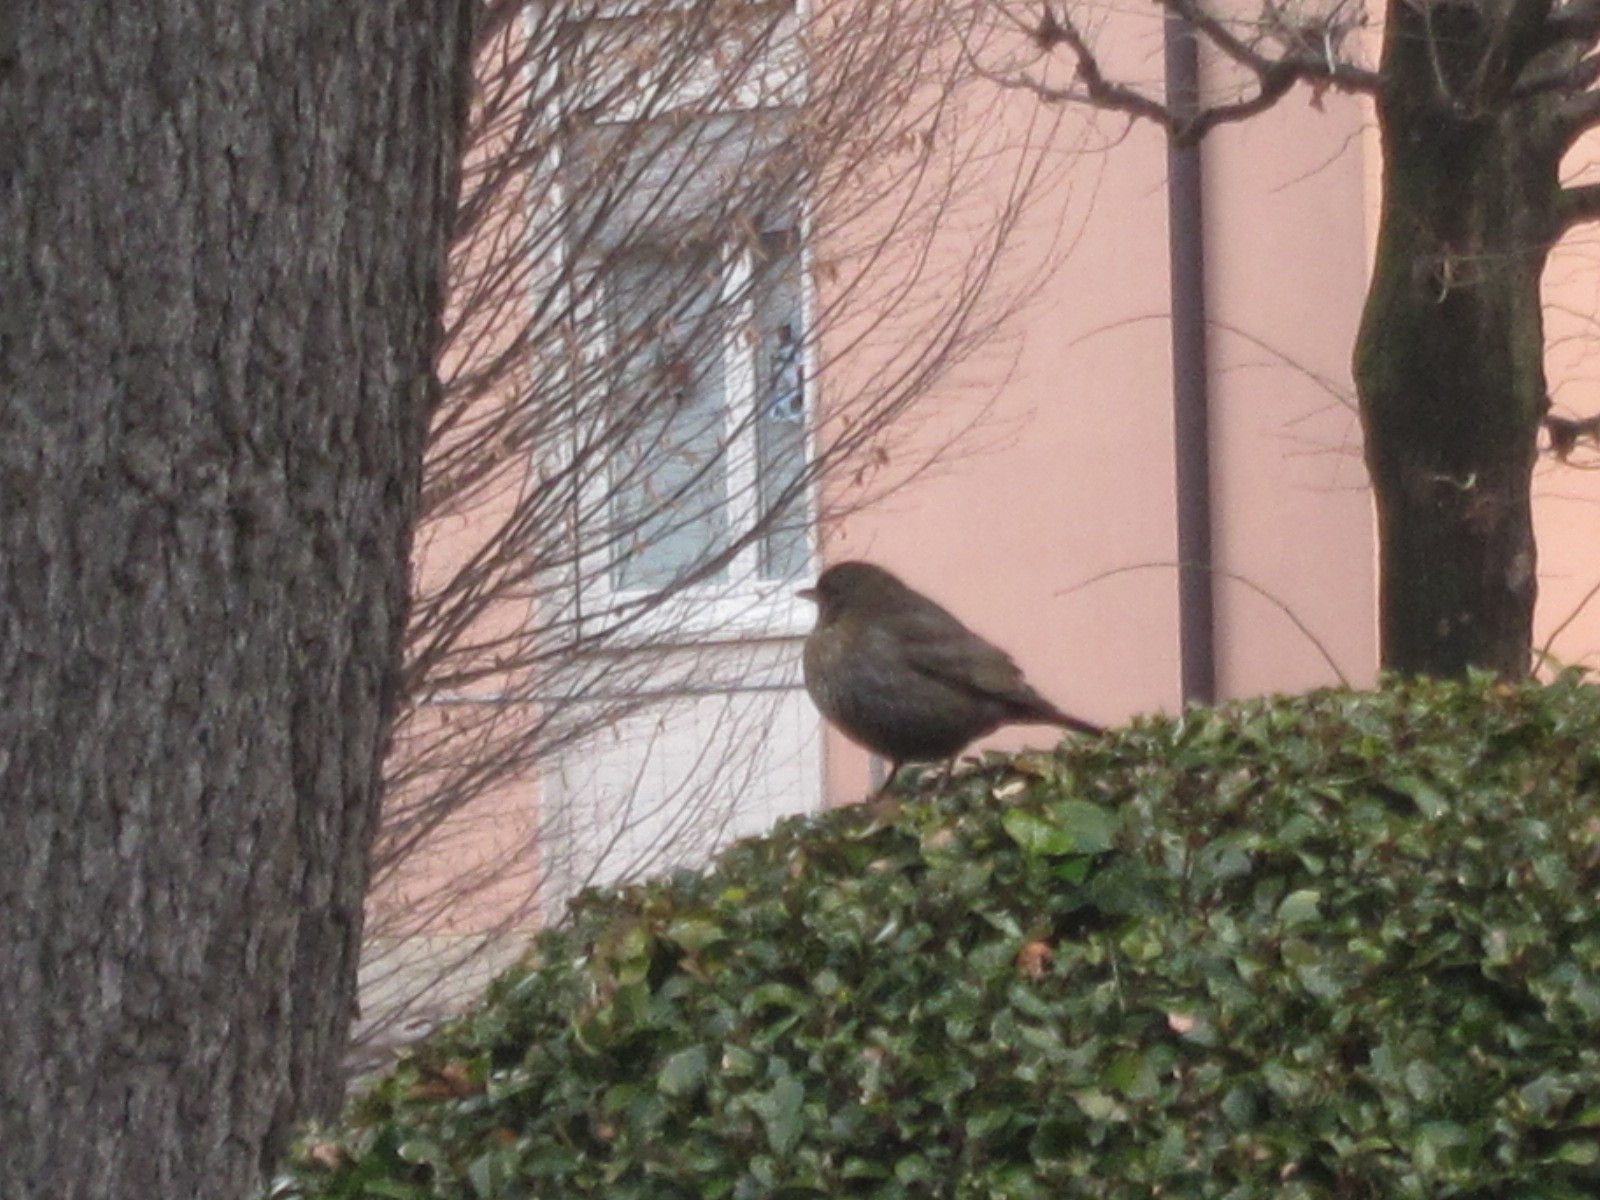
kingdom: Animalia
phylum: Chordata
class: Aves
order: Passeriformes
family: Turdidae
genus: Turdus
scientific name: Turdus merula
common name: Common blackbird
